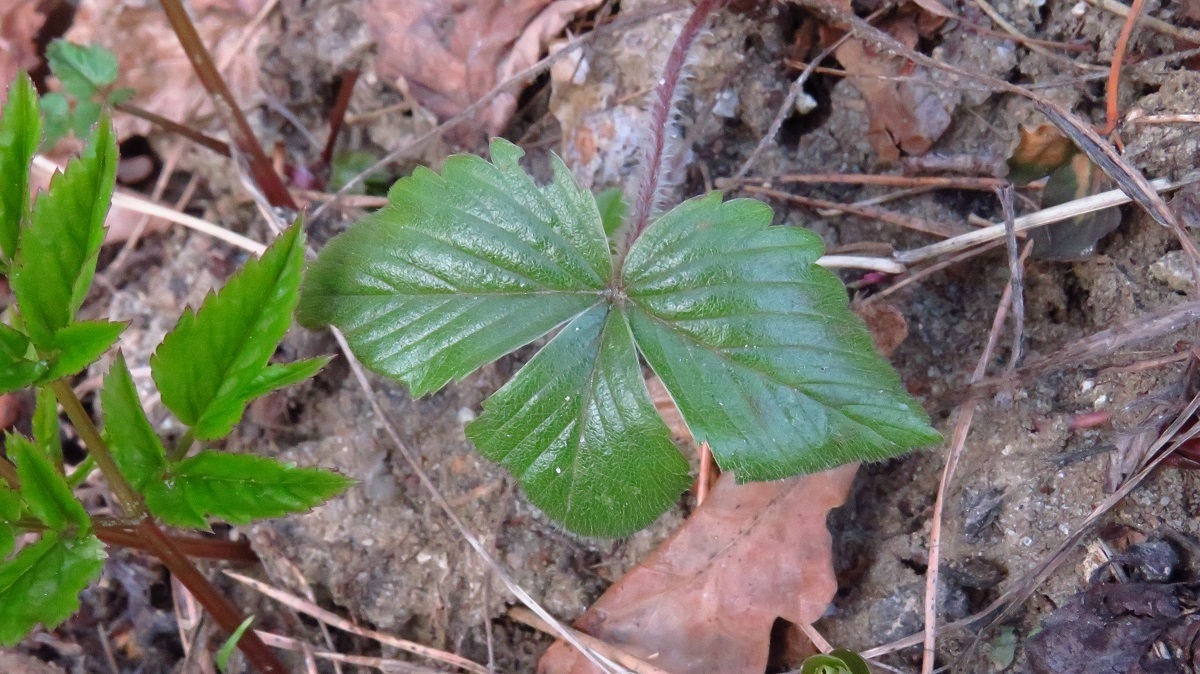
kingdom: Plantae
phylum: Tracheophyta
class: Magnoliopsida
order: Rosales
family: Rosaceae
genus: Fragaria
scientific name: Fragaria vesca
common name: Wild strawberry
